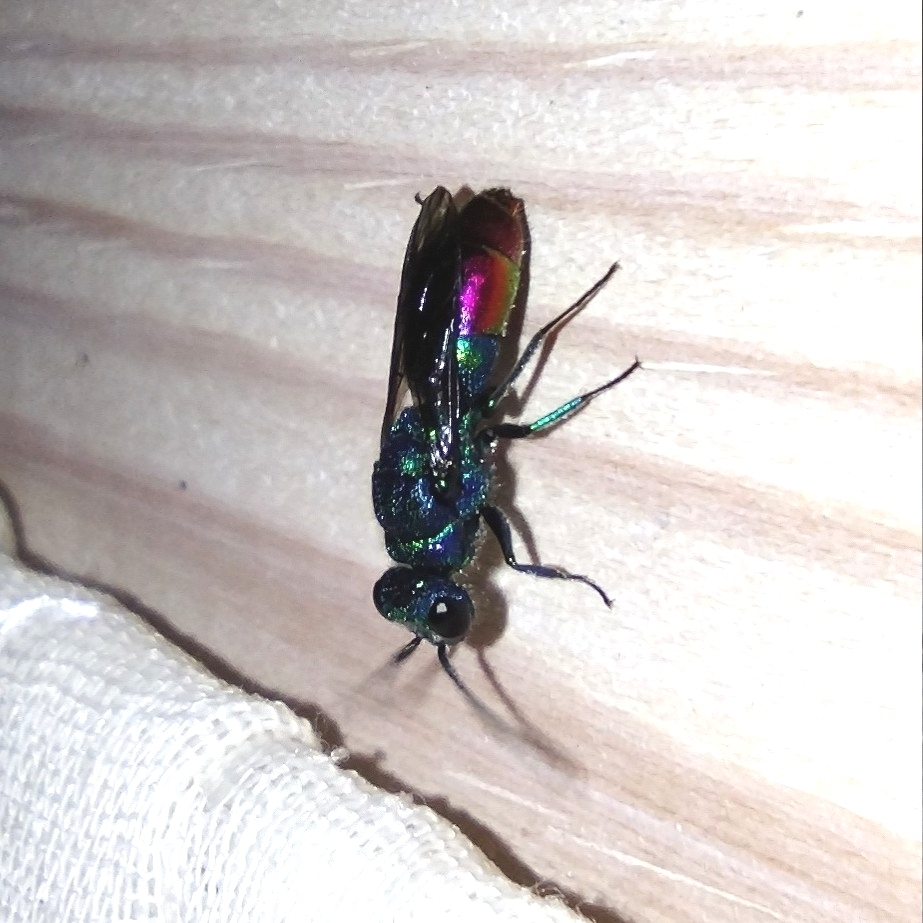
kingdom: Animalia
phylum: Arthropoda
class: Insecta
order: Hymenoptera
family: Chrysididae
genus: Chrysis
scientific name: Chrysis fulgida
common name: Shimmering ruby-tail
